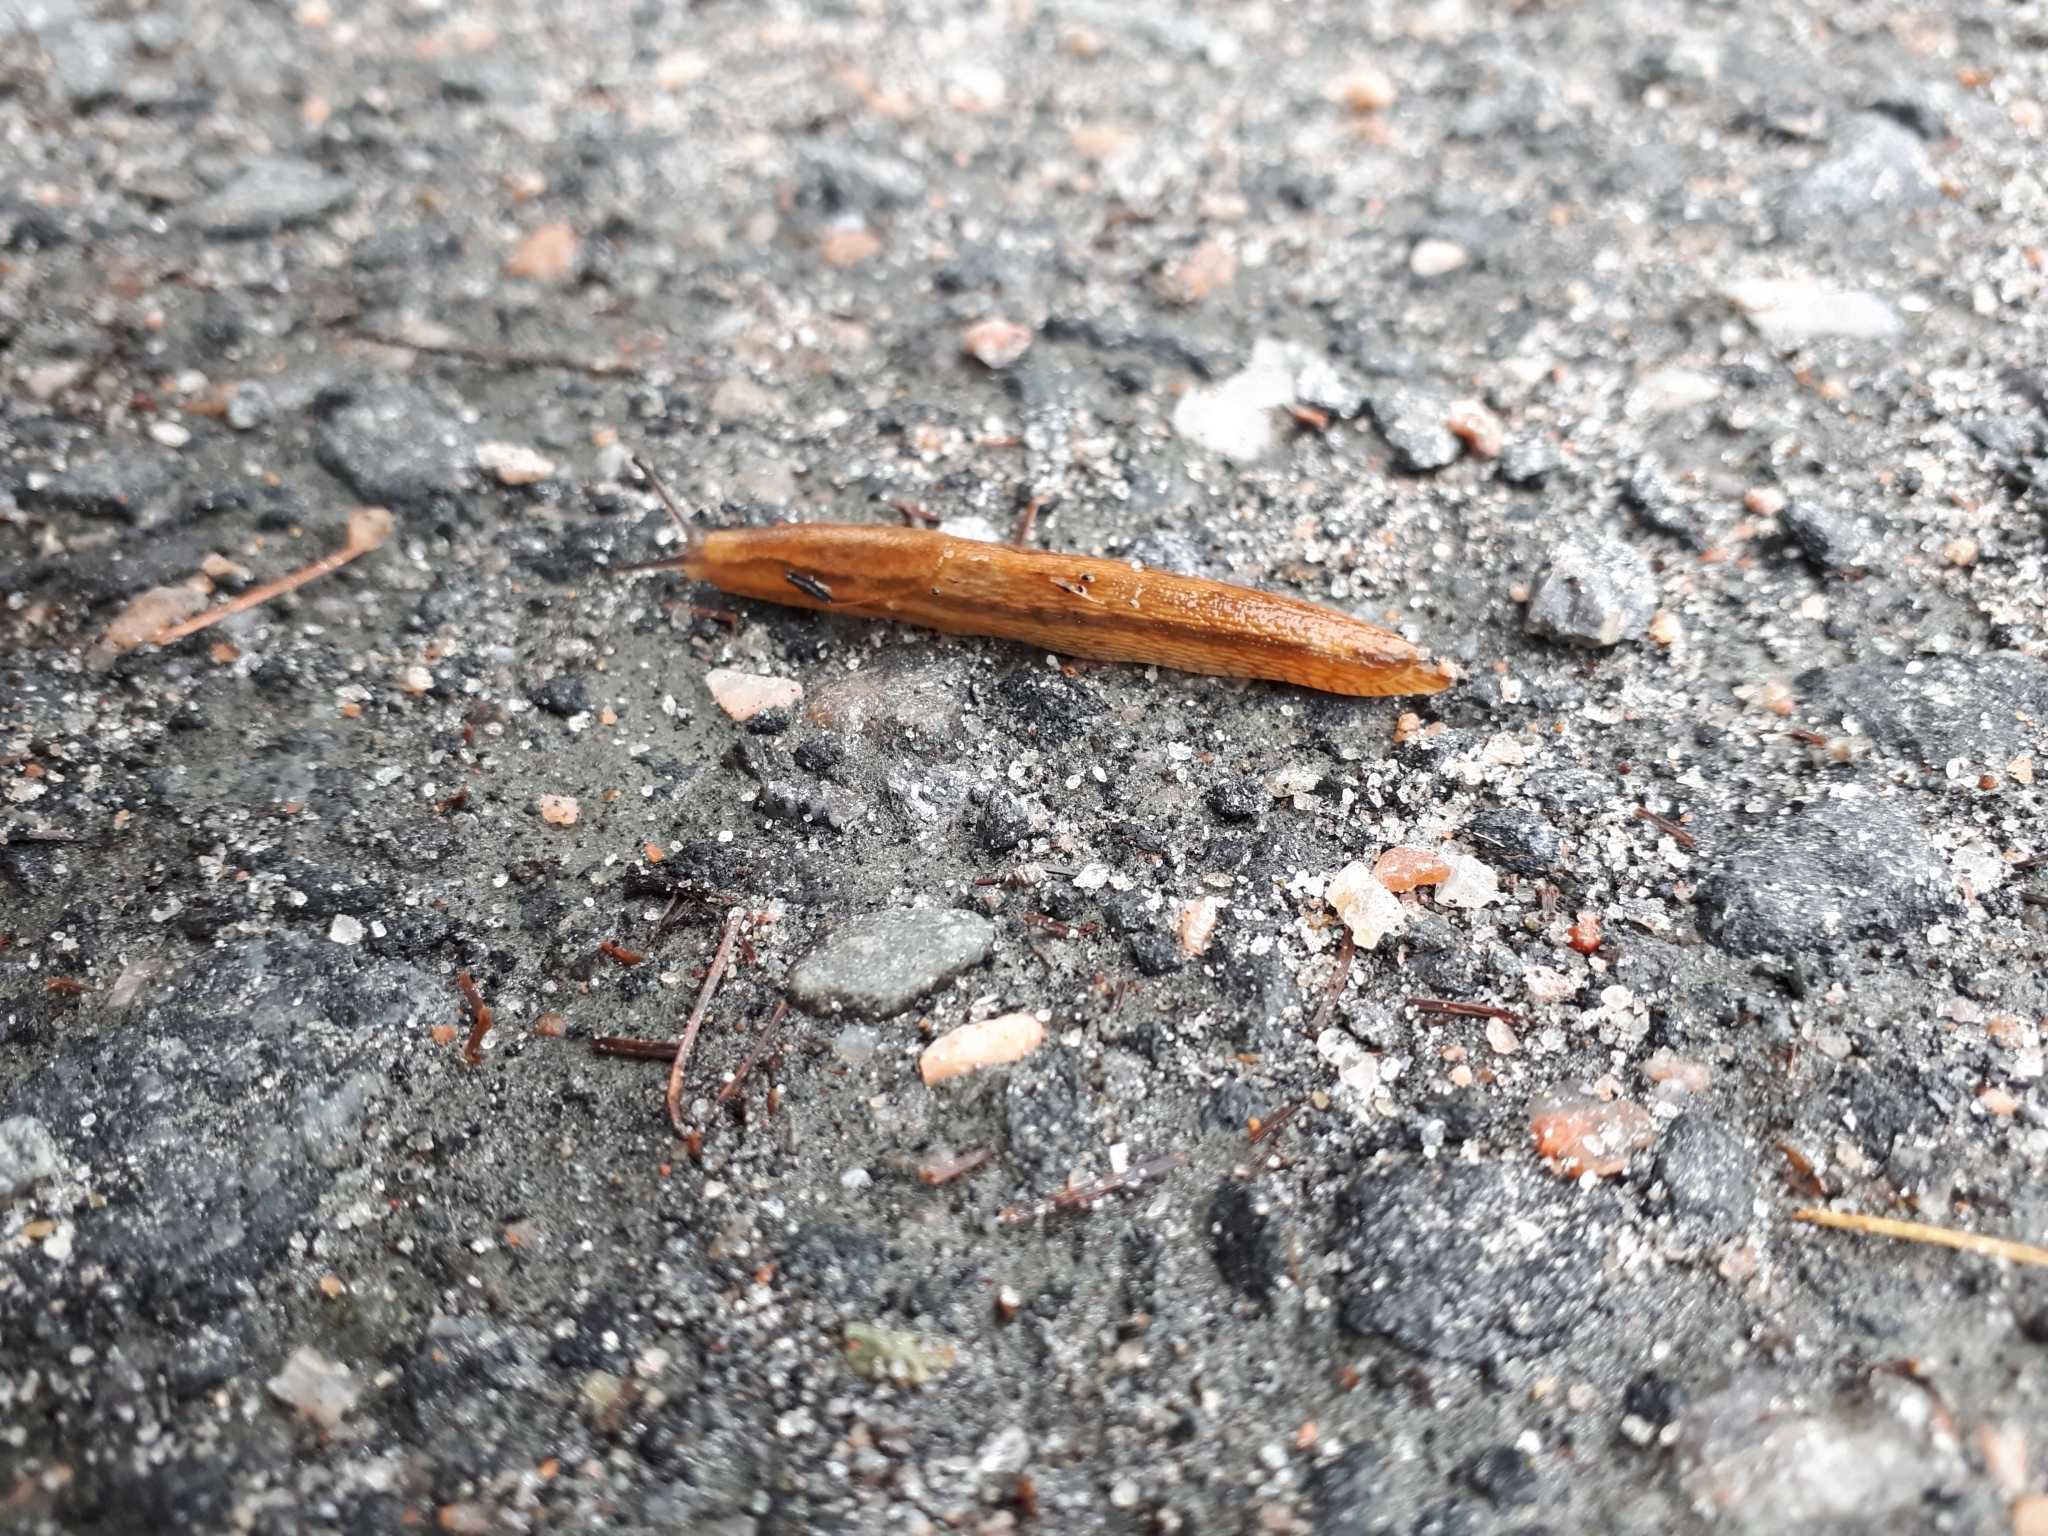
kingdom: Animalia
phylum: Mollusca
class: Gastropoda
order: Stylommatophora
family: Arionidae
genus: Arion
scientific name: Arion subfuscus
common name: Dusky arion
